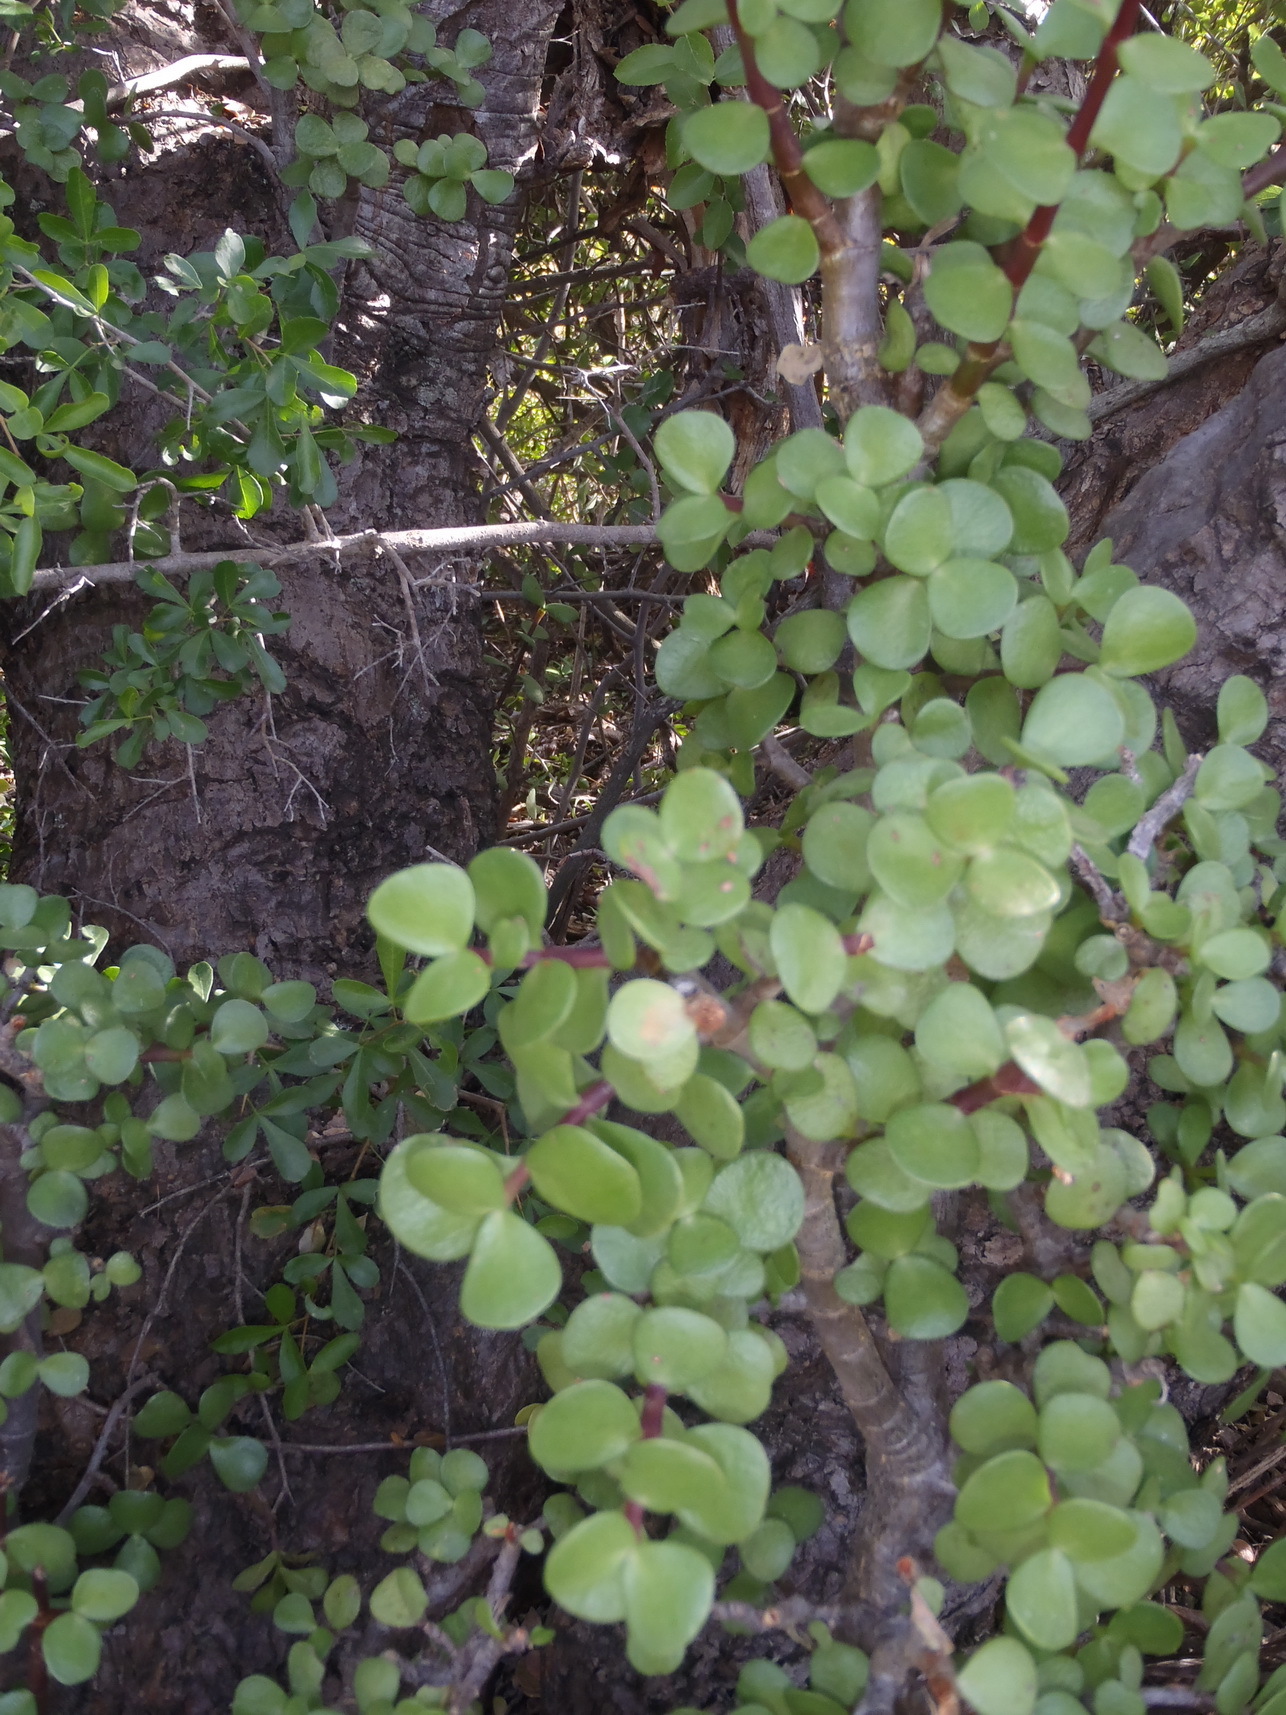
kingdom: Plantae
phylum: Tracheophyta
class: Magnoliopsida
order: Caryophyllales
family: Didiereaceae
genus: Portulacaria
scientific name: Portulacaria afra
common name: Elephant-bush
